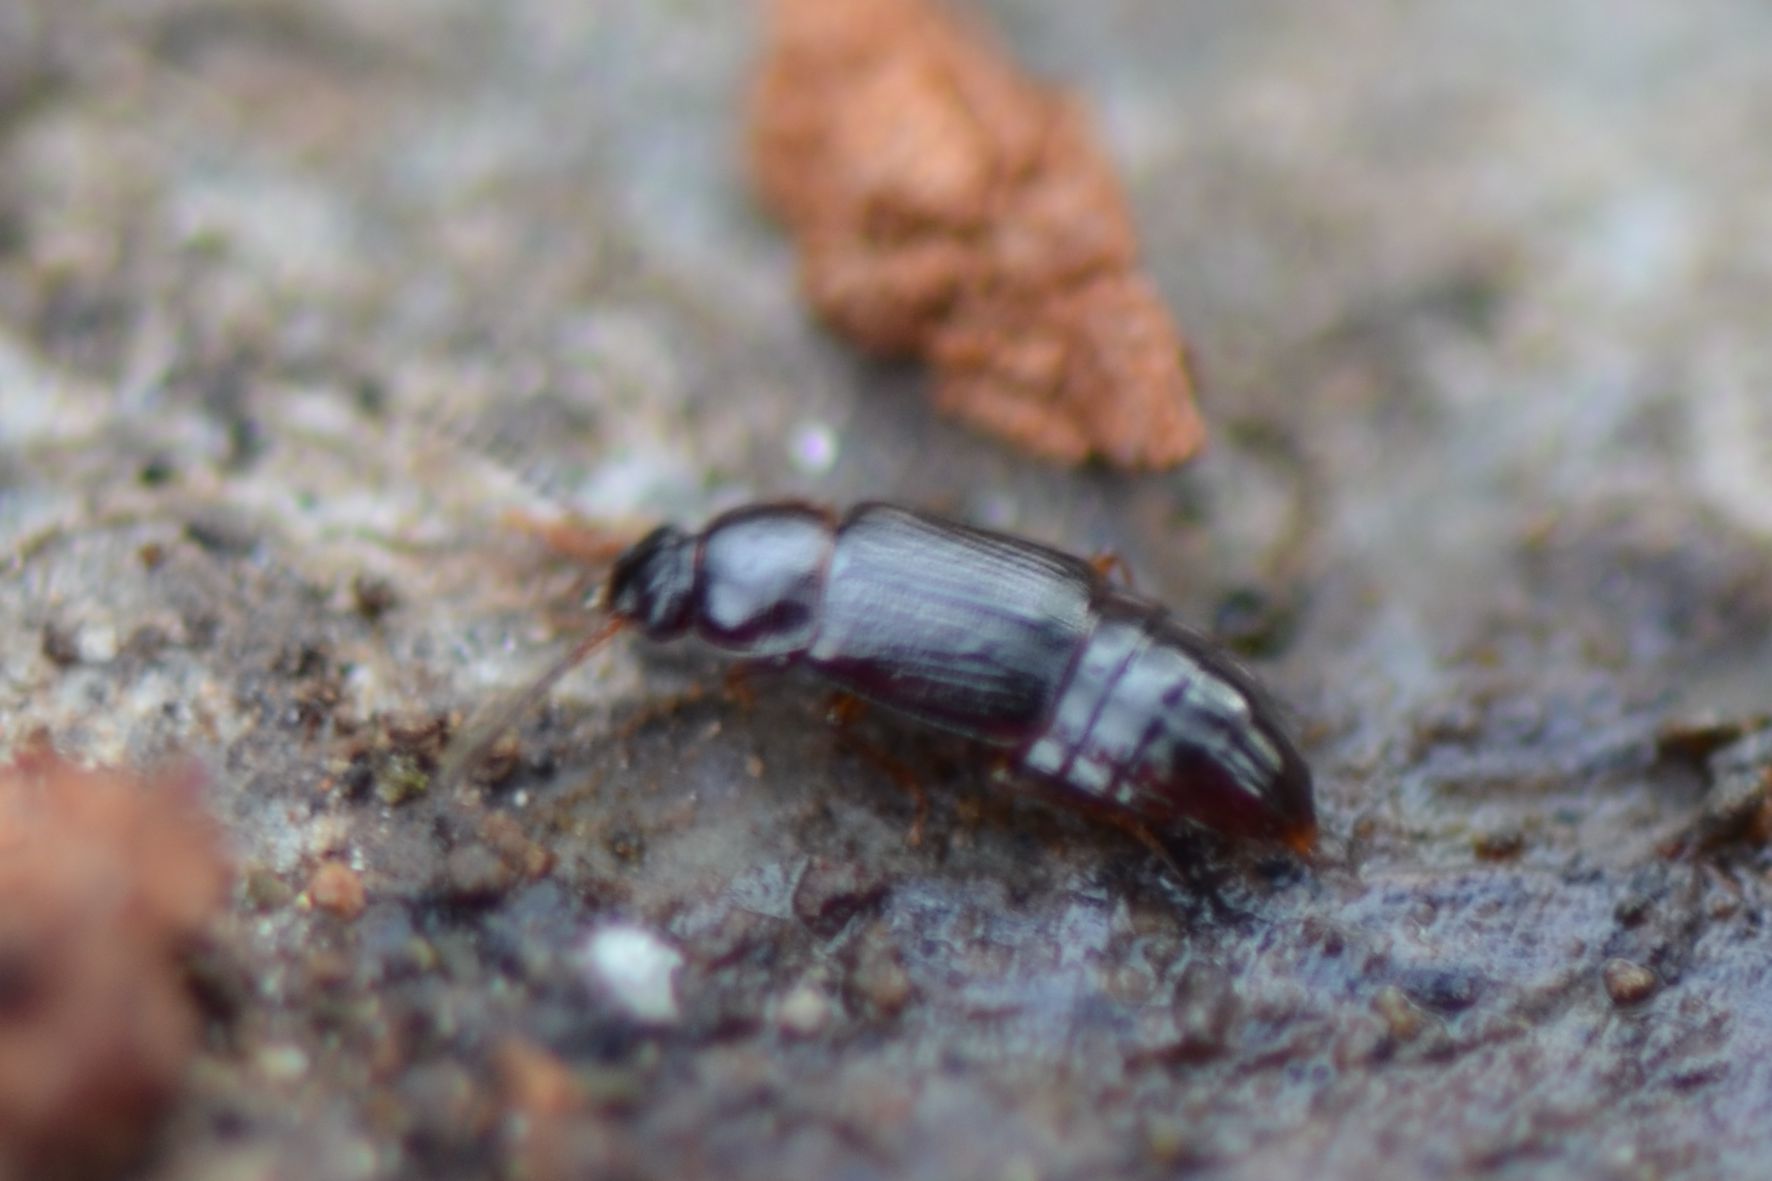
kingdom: Animalia
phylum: Arthropoda
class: Insecta
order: Coleoptera
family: Staphylinidae
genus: Phyllodrepoidea
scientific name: Phyllodrepoidea crenata
